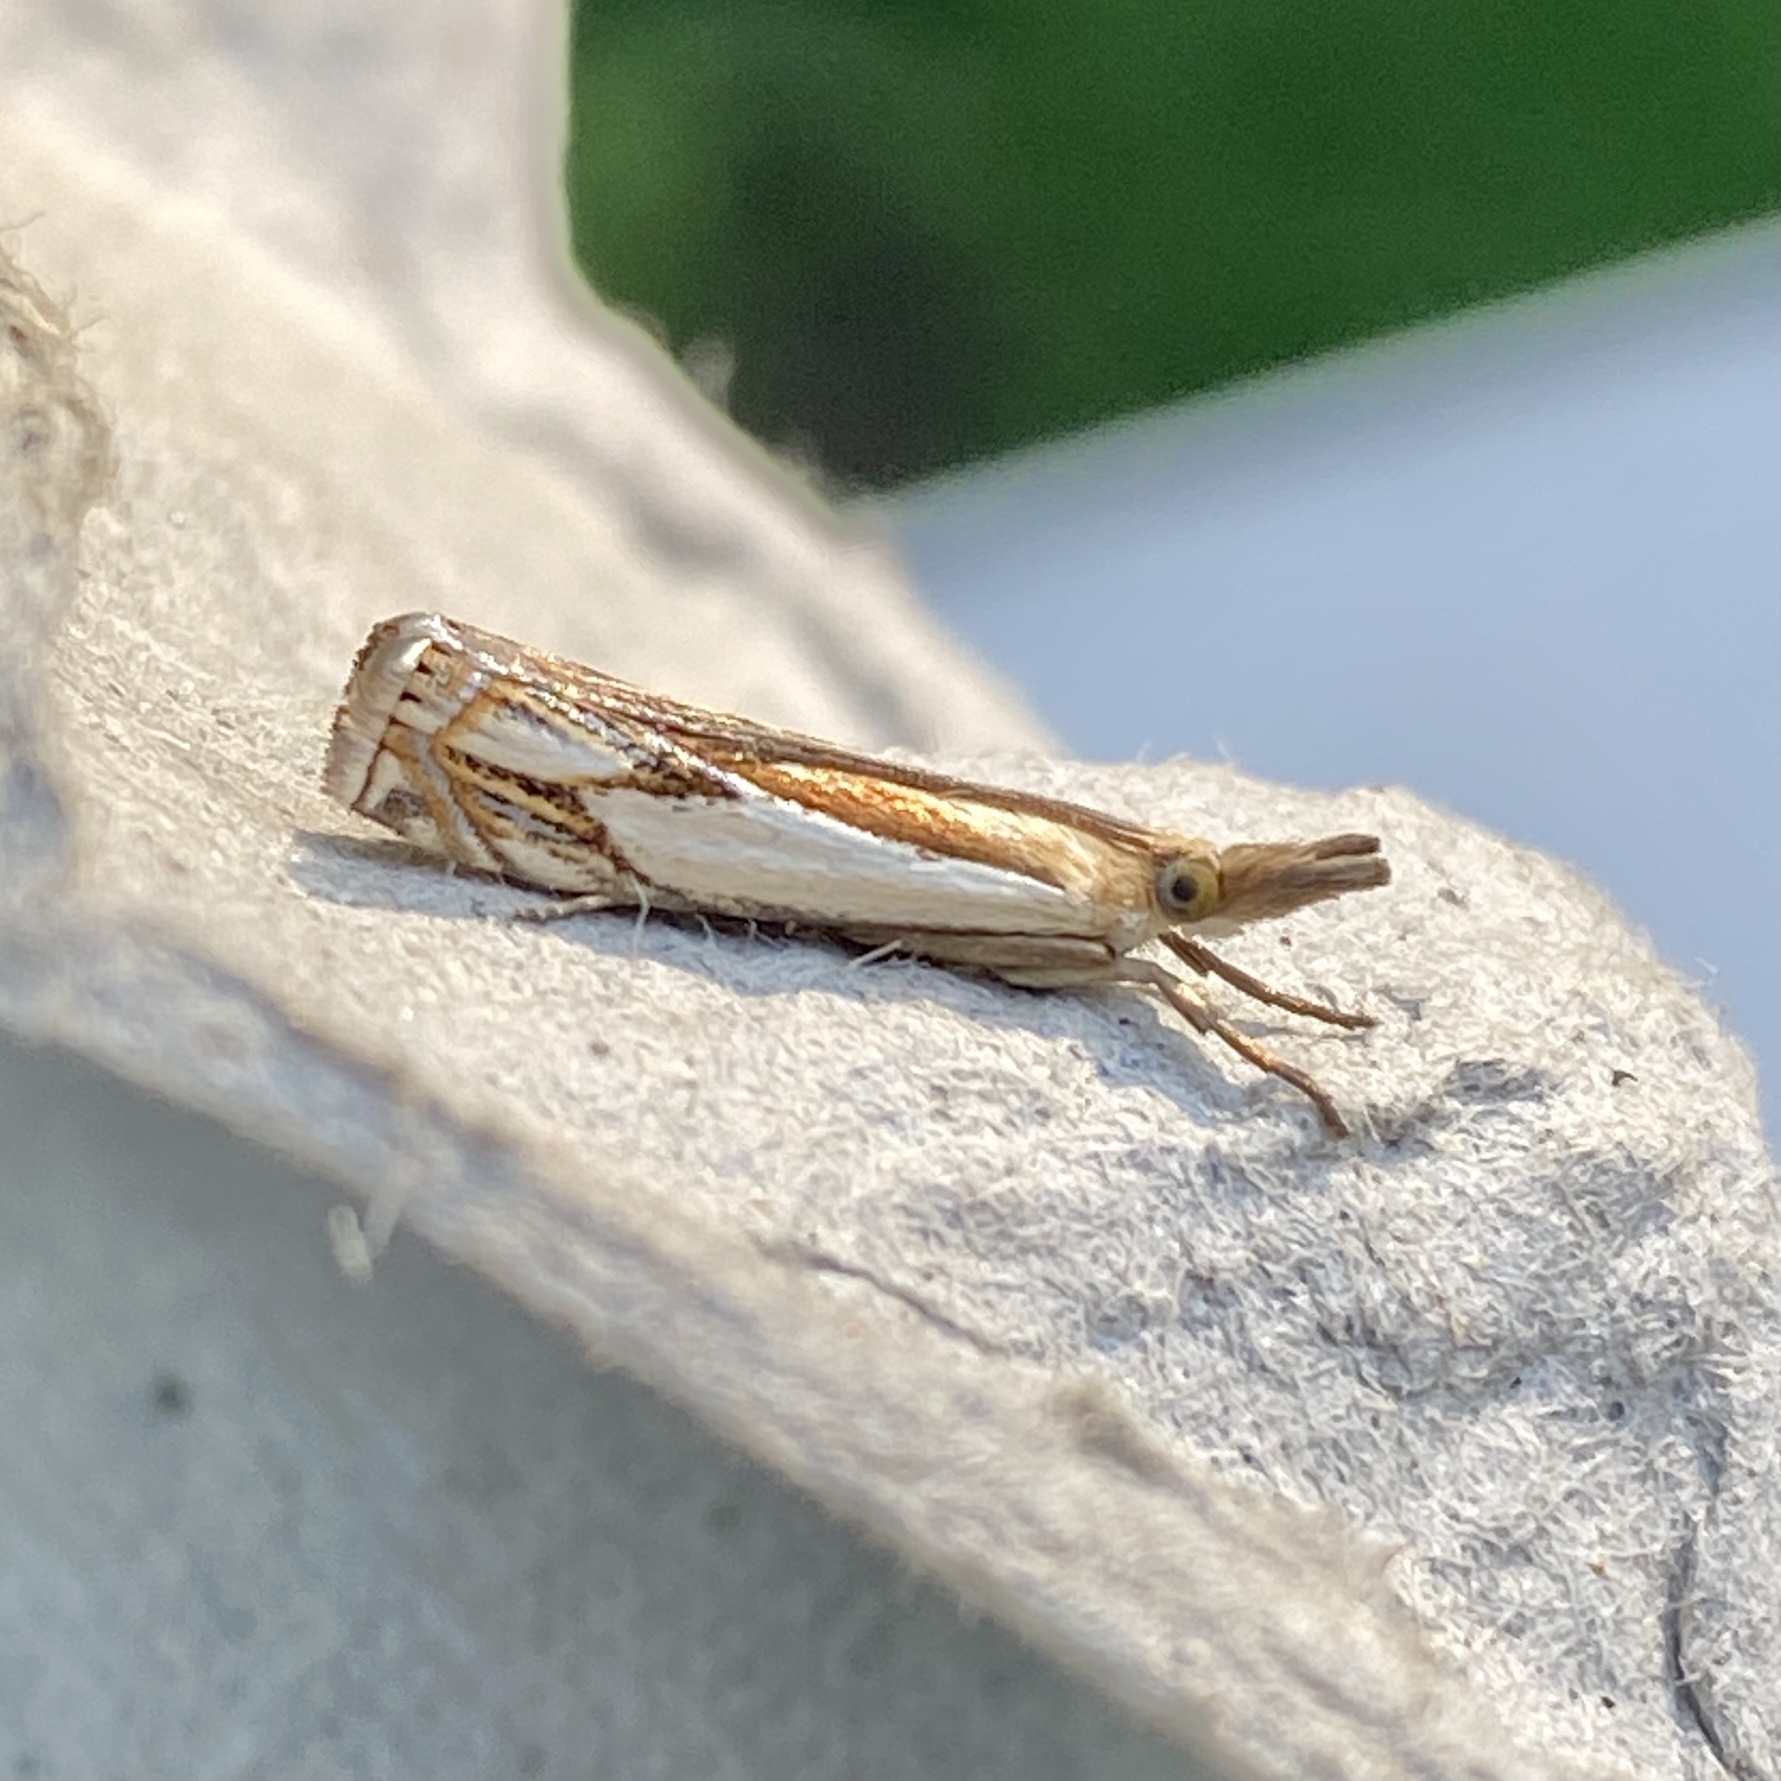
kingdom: Animalia
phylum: Arthropoda
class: Insecta
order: Lepidoptera
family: Crambidae
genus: Crambus
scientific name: Crambus agitatellus
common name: Double-banded grass-veneer
